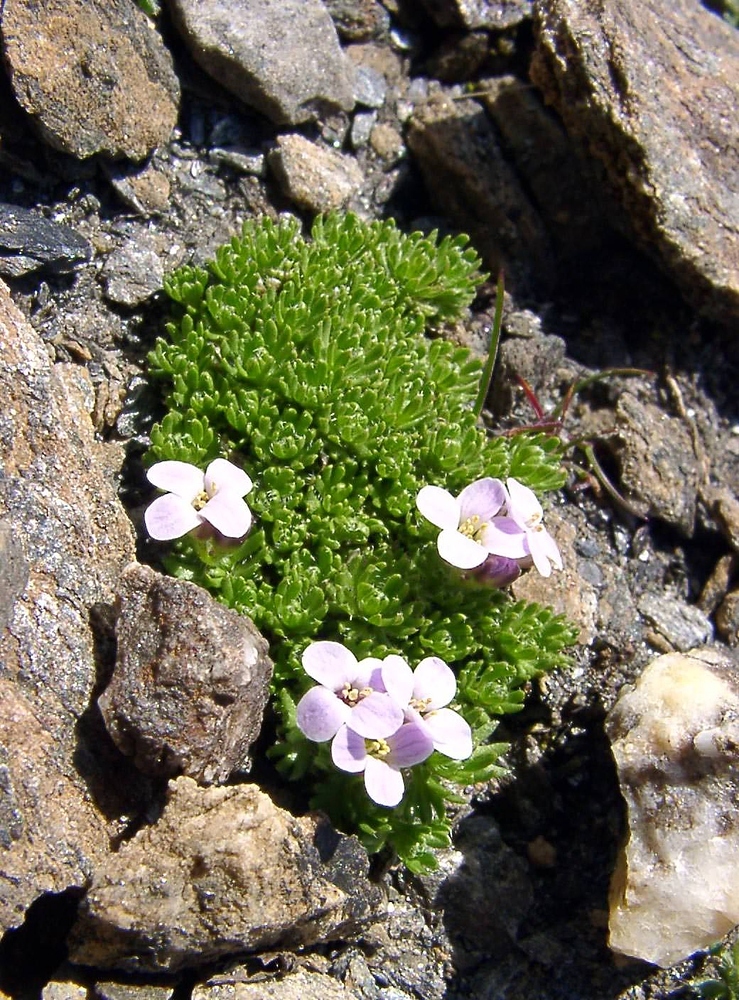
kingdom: Plantae
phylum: Tracheophyta
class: Magnoliopsida
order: Brassicales
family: Brassicaceae
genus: Petrocallis
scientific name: Petrocallis pyrenaica
